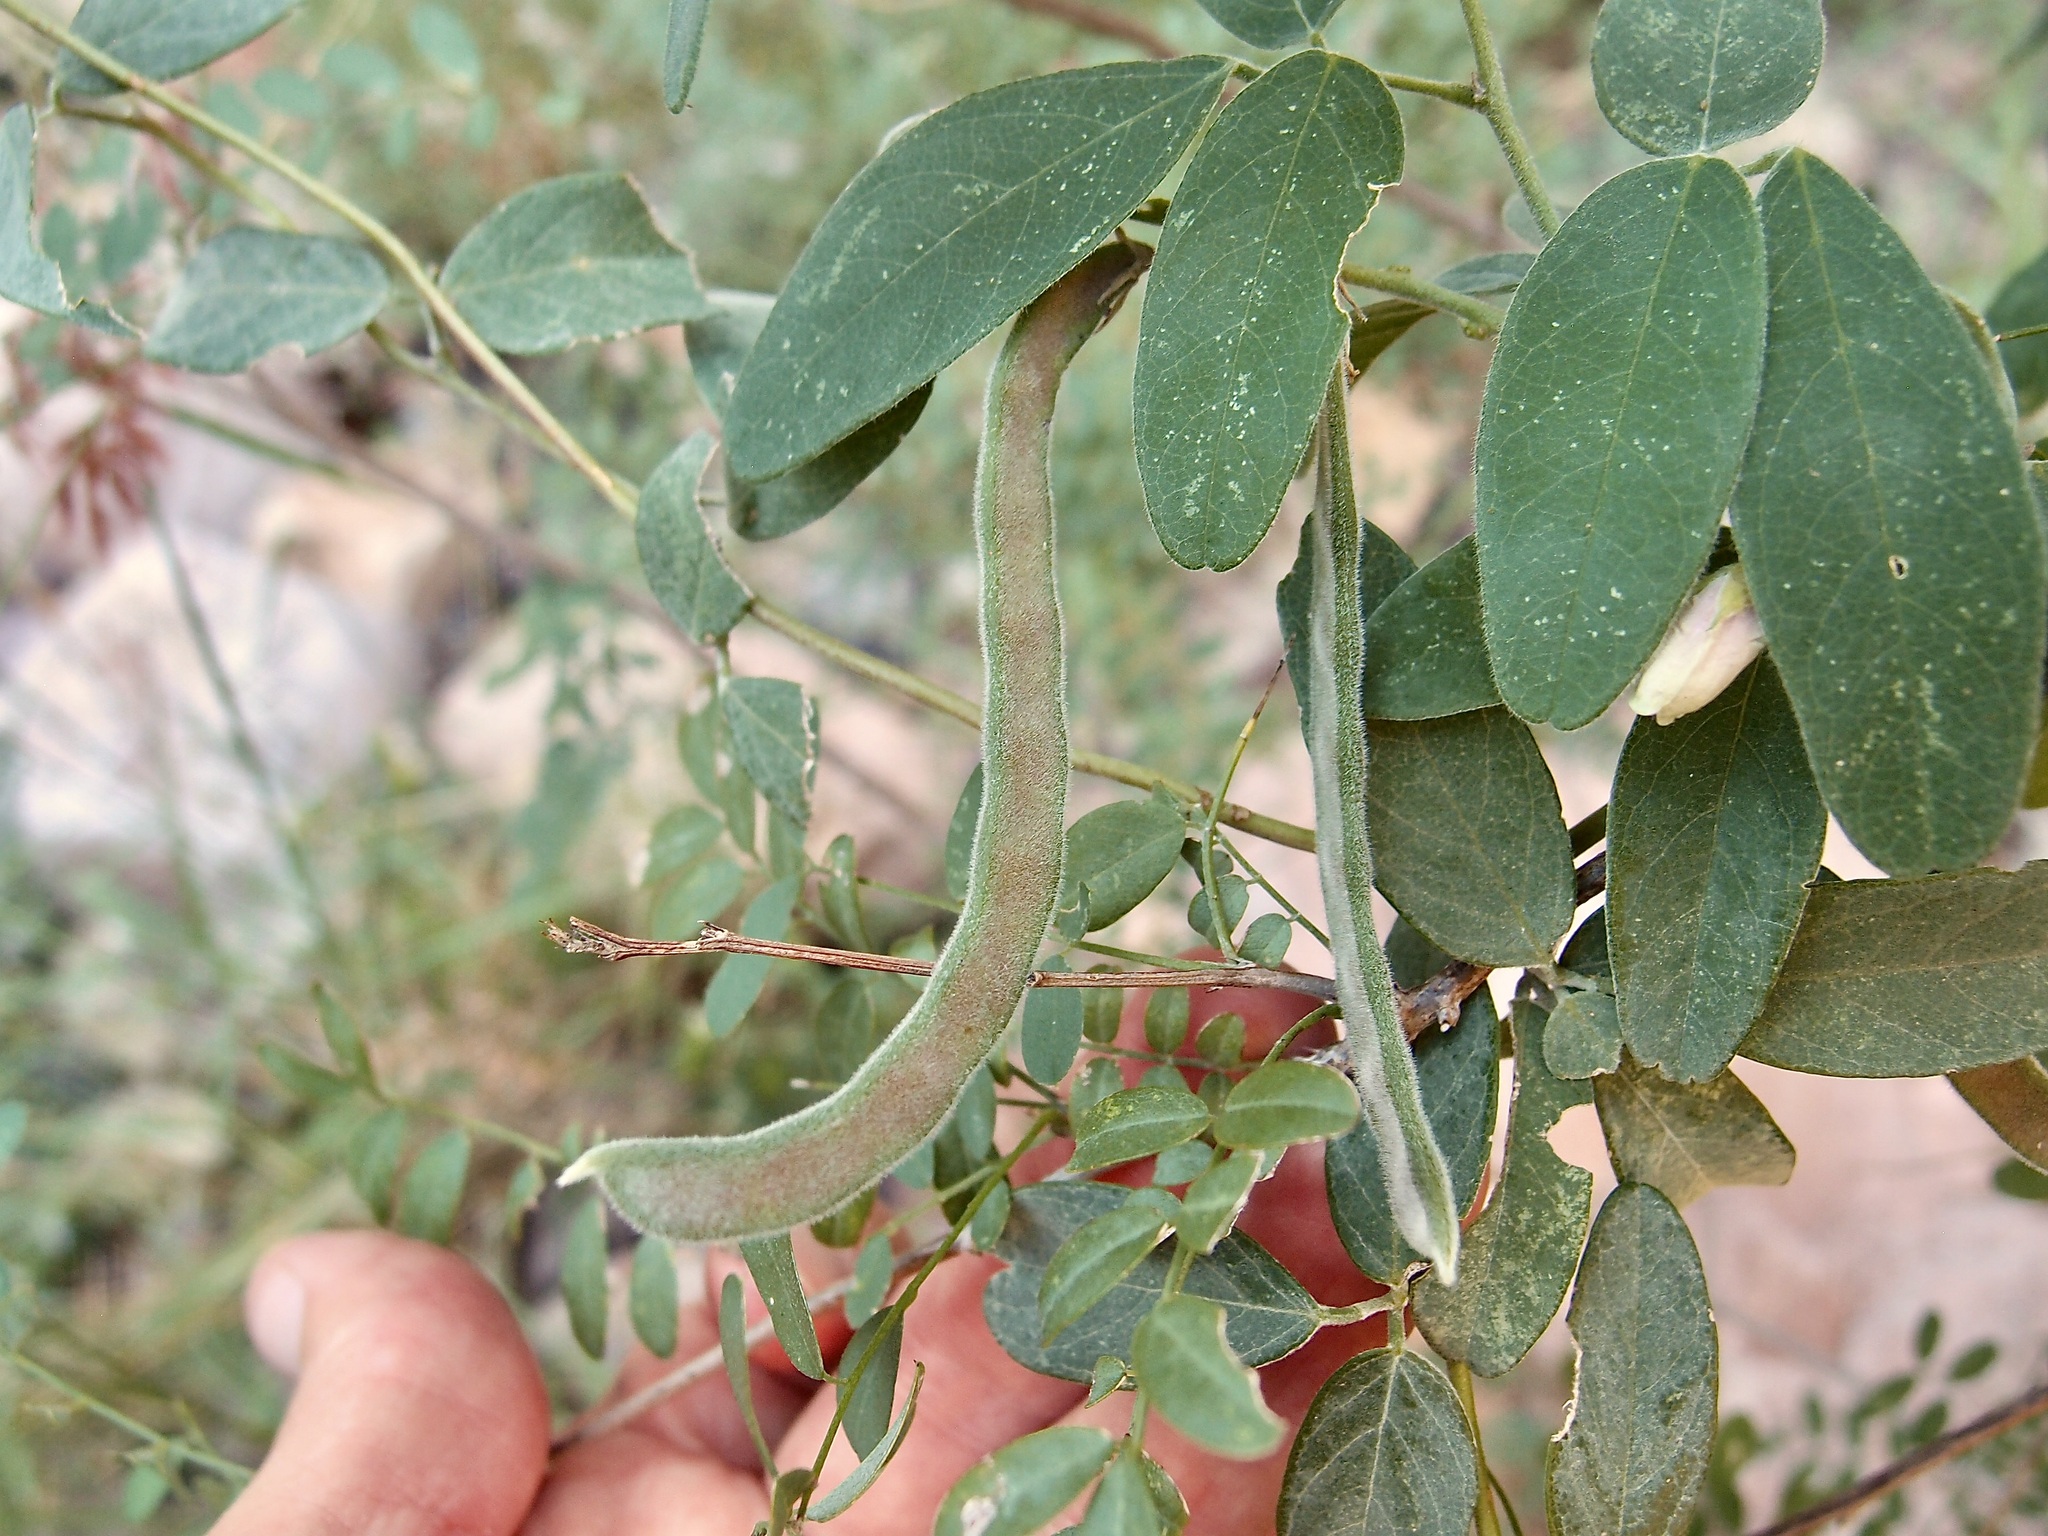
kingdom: Plantae
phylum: Tracheophyta
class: Magnoliopsida
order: Fabales
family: Fabaceae
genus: Galactia
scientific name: Galactia wrightii
